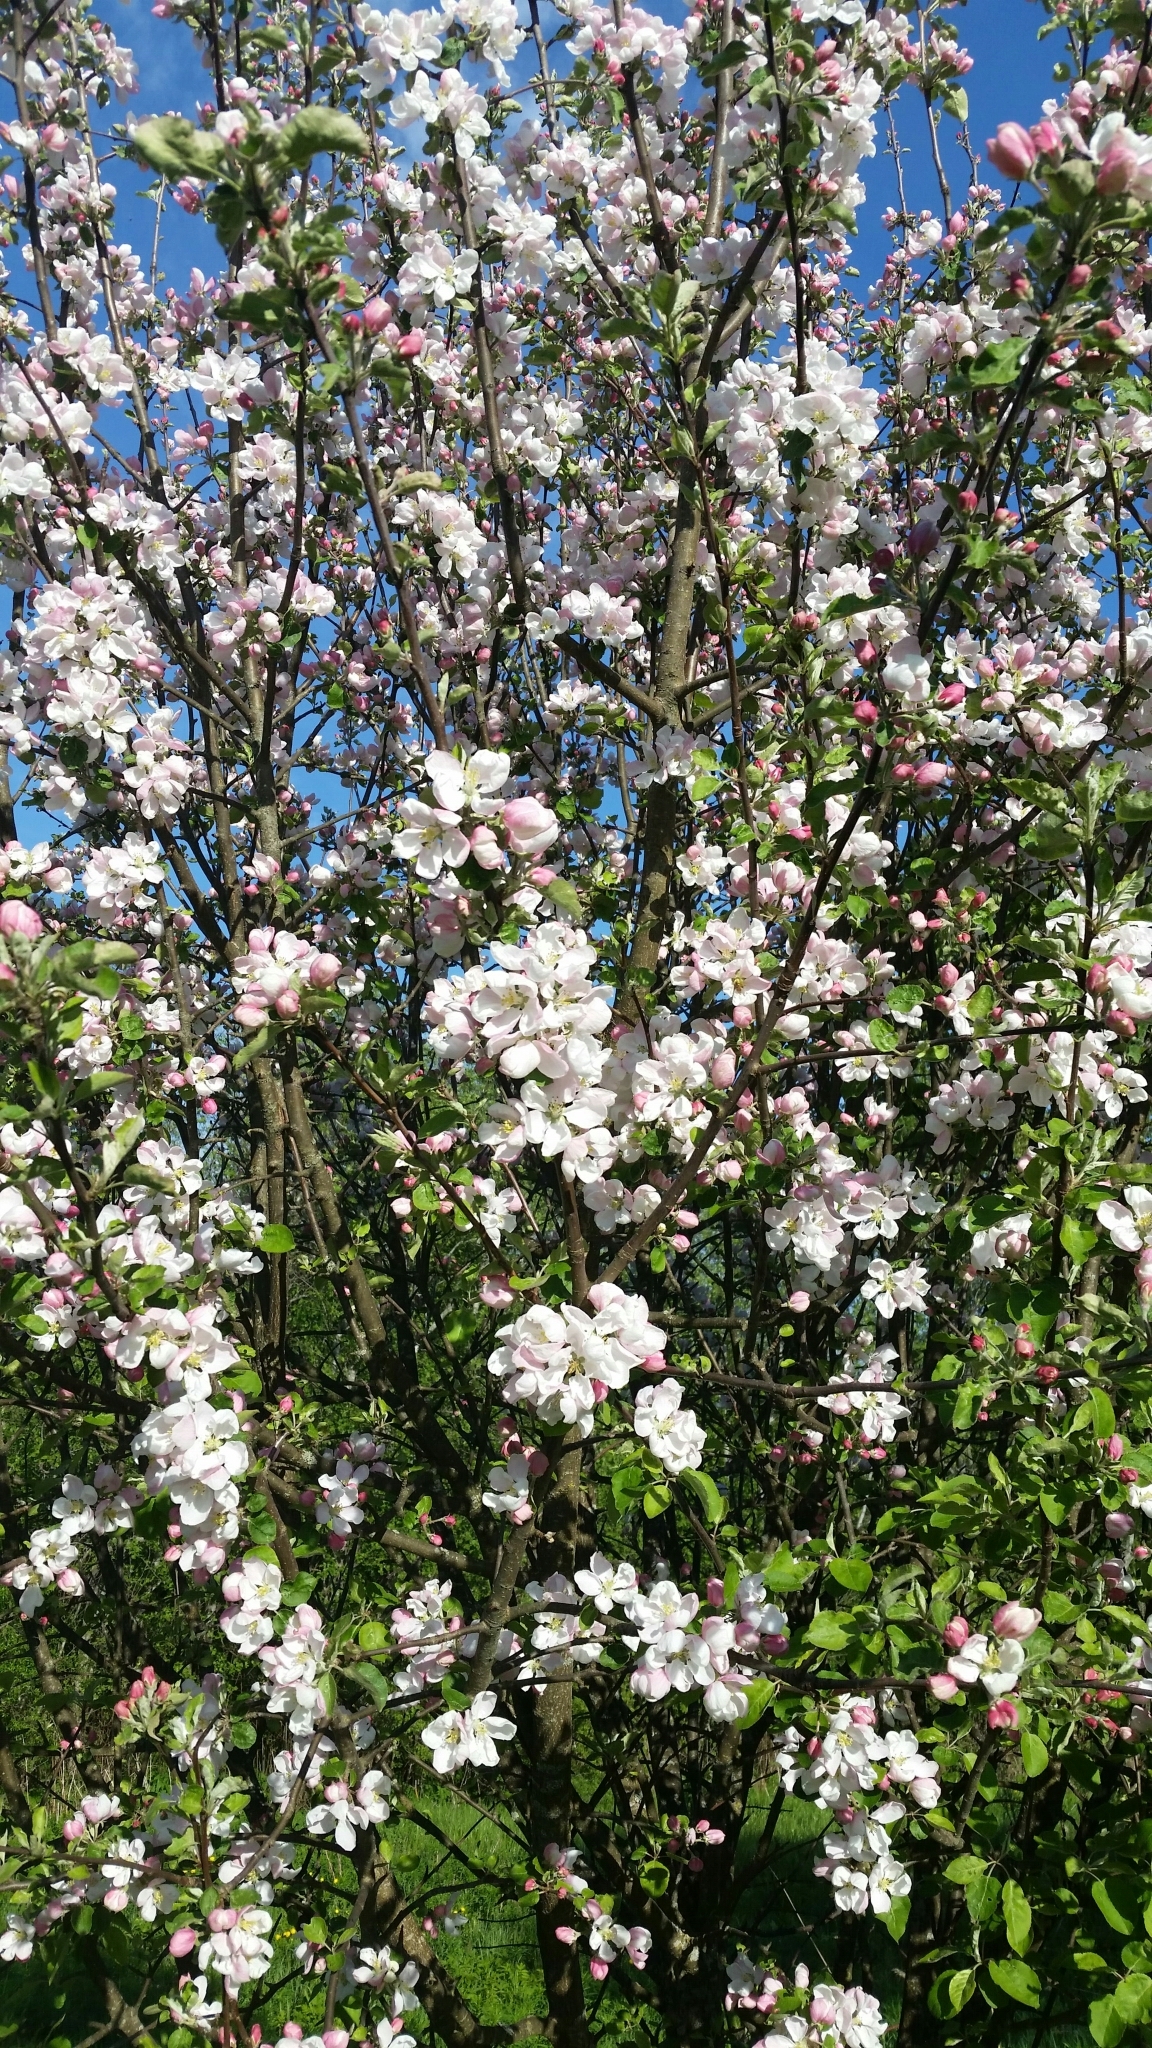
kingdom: Plantae
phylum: Tracheophyta
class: Magnoliopsida
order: Rosales
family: Rosaceae
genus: Malus
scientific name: Malus domestica
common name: Apple
